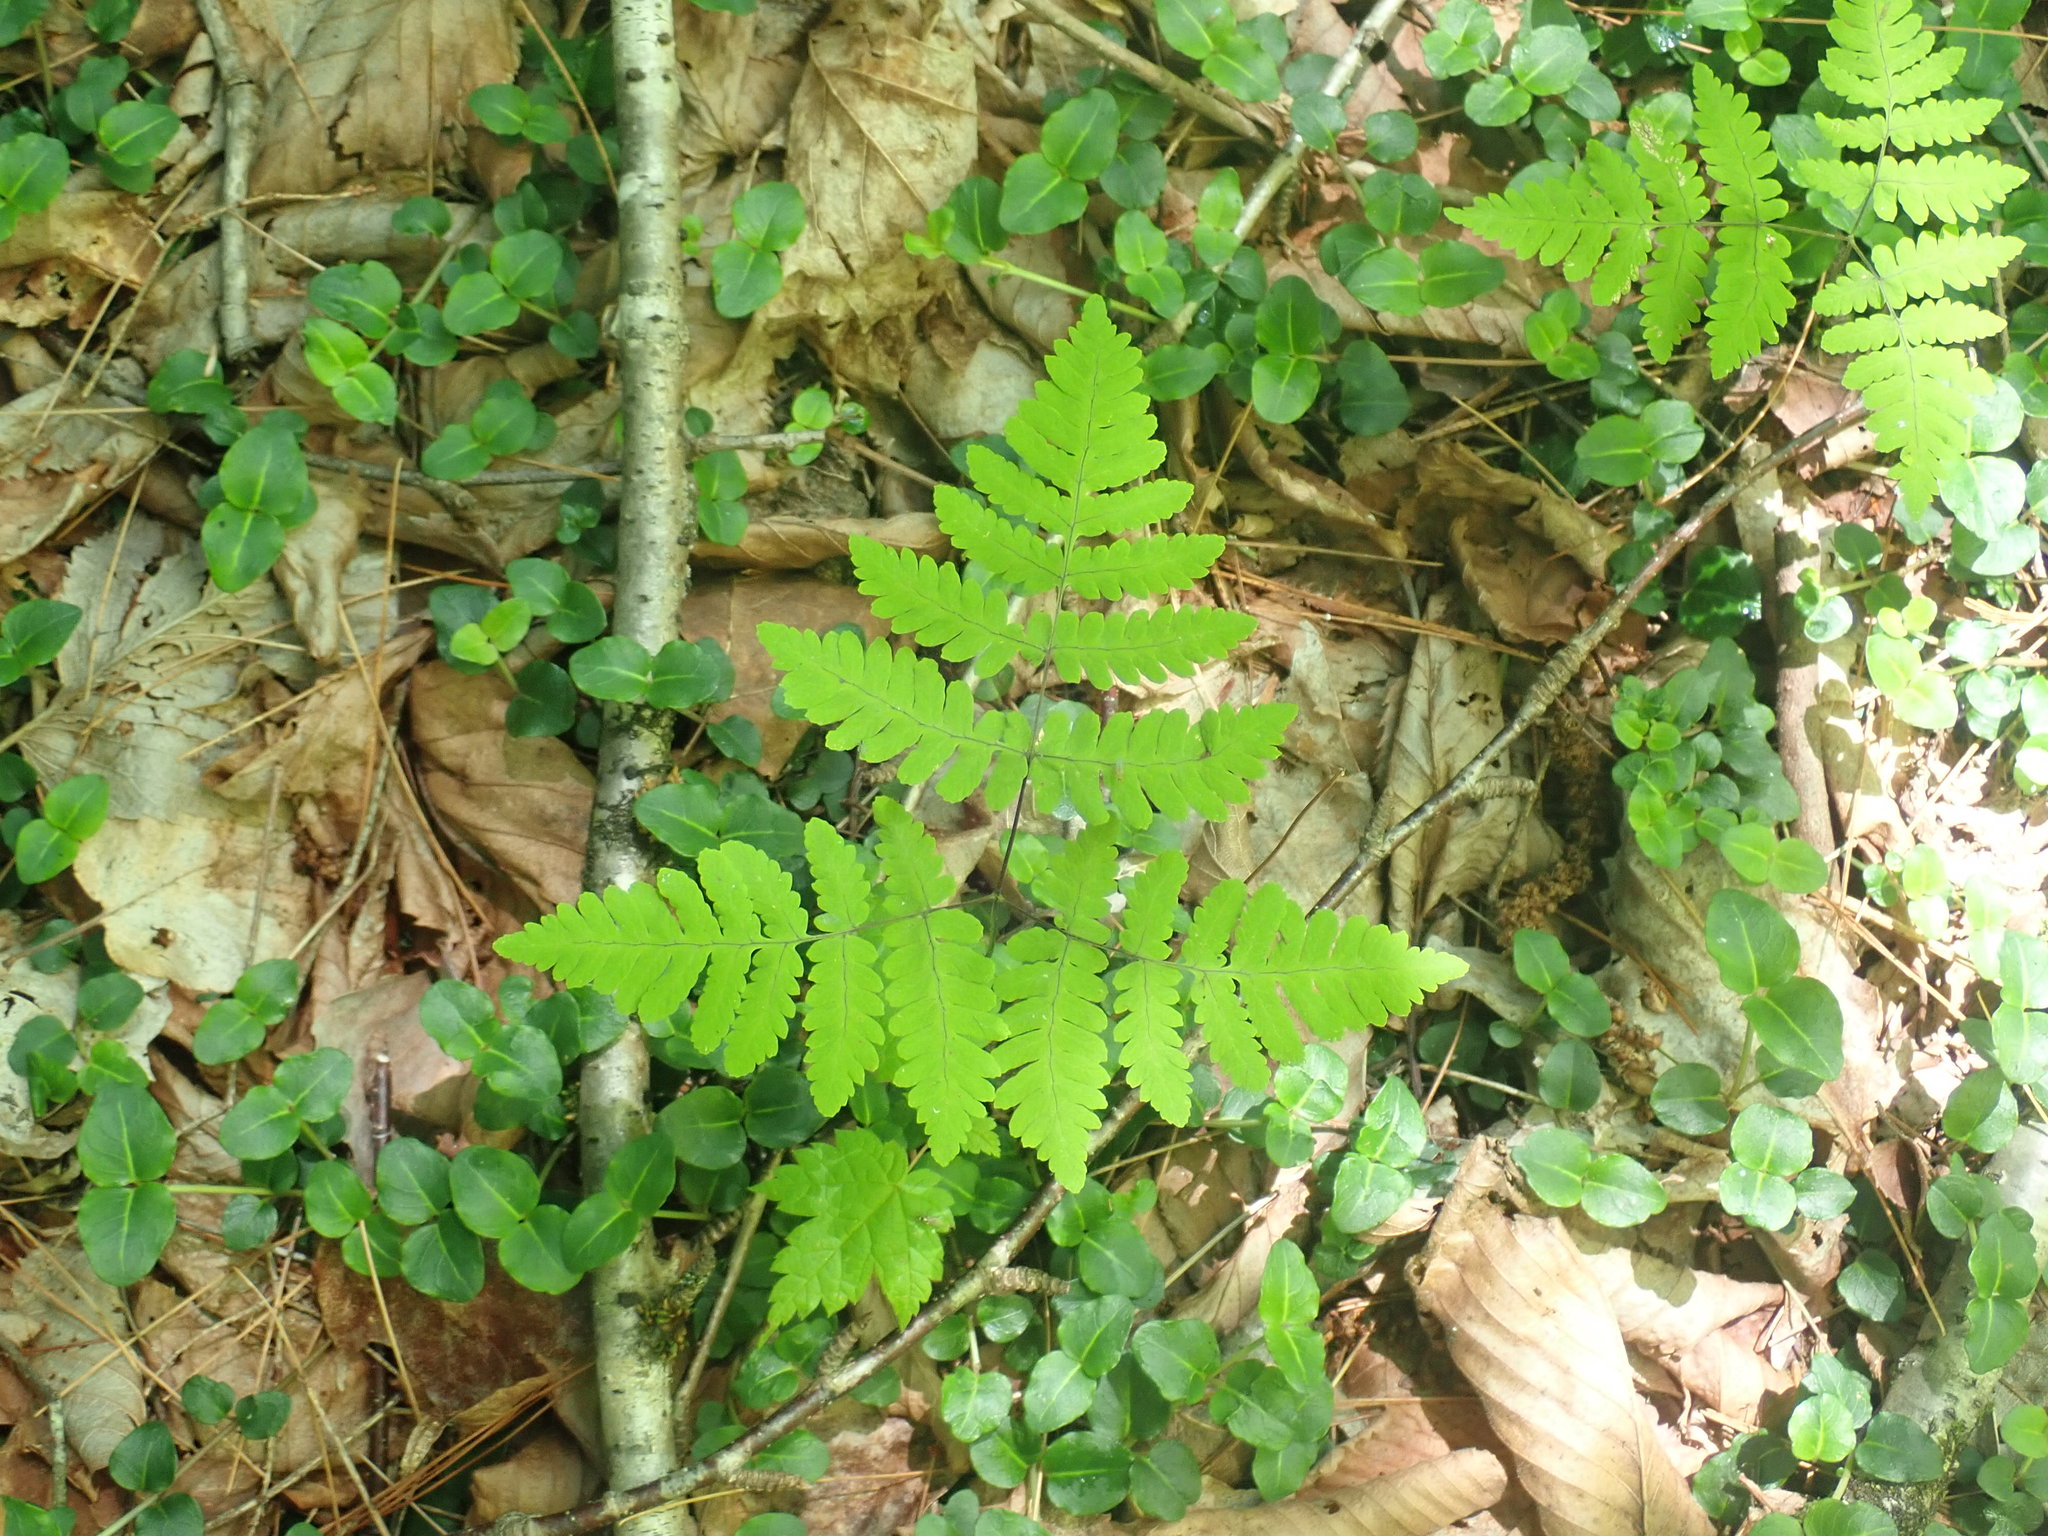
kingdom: Plantae
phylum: Tracheophyta
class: Polypodiopsida
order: Polypodiales
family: Cystopteridaceae
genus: Gymnocarpium
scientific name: Gymnocarpium dryopteris
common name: Oak fern
